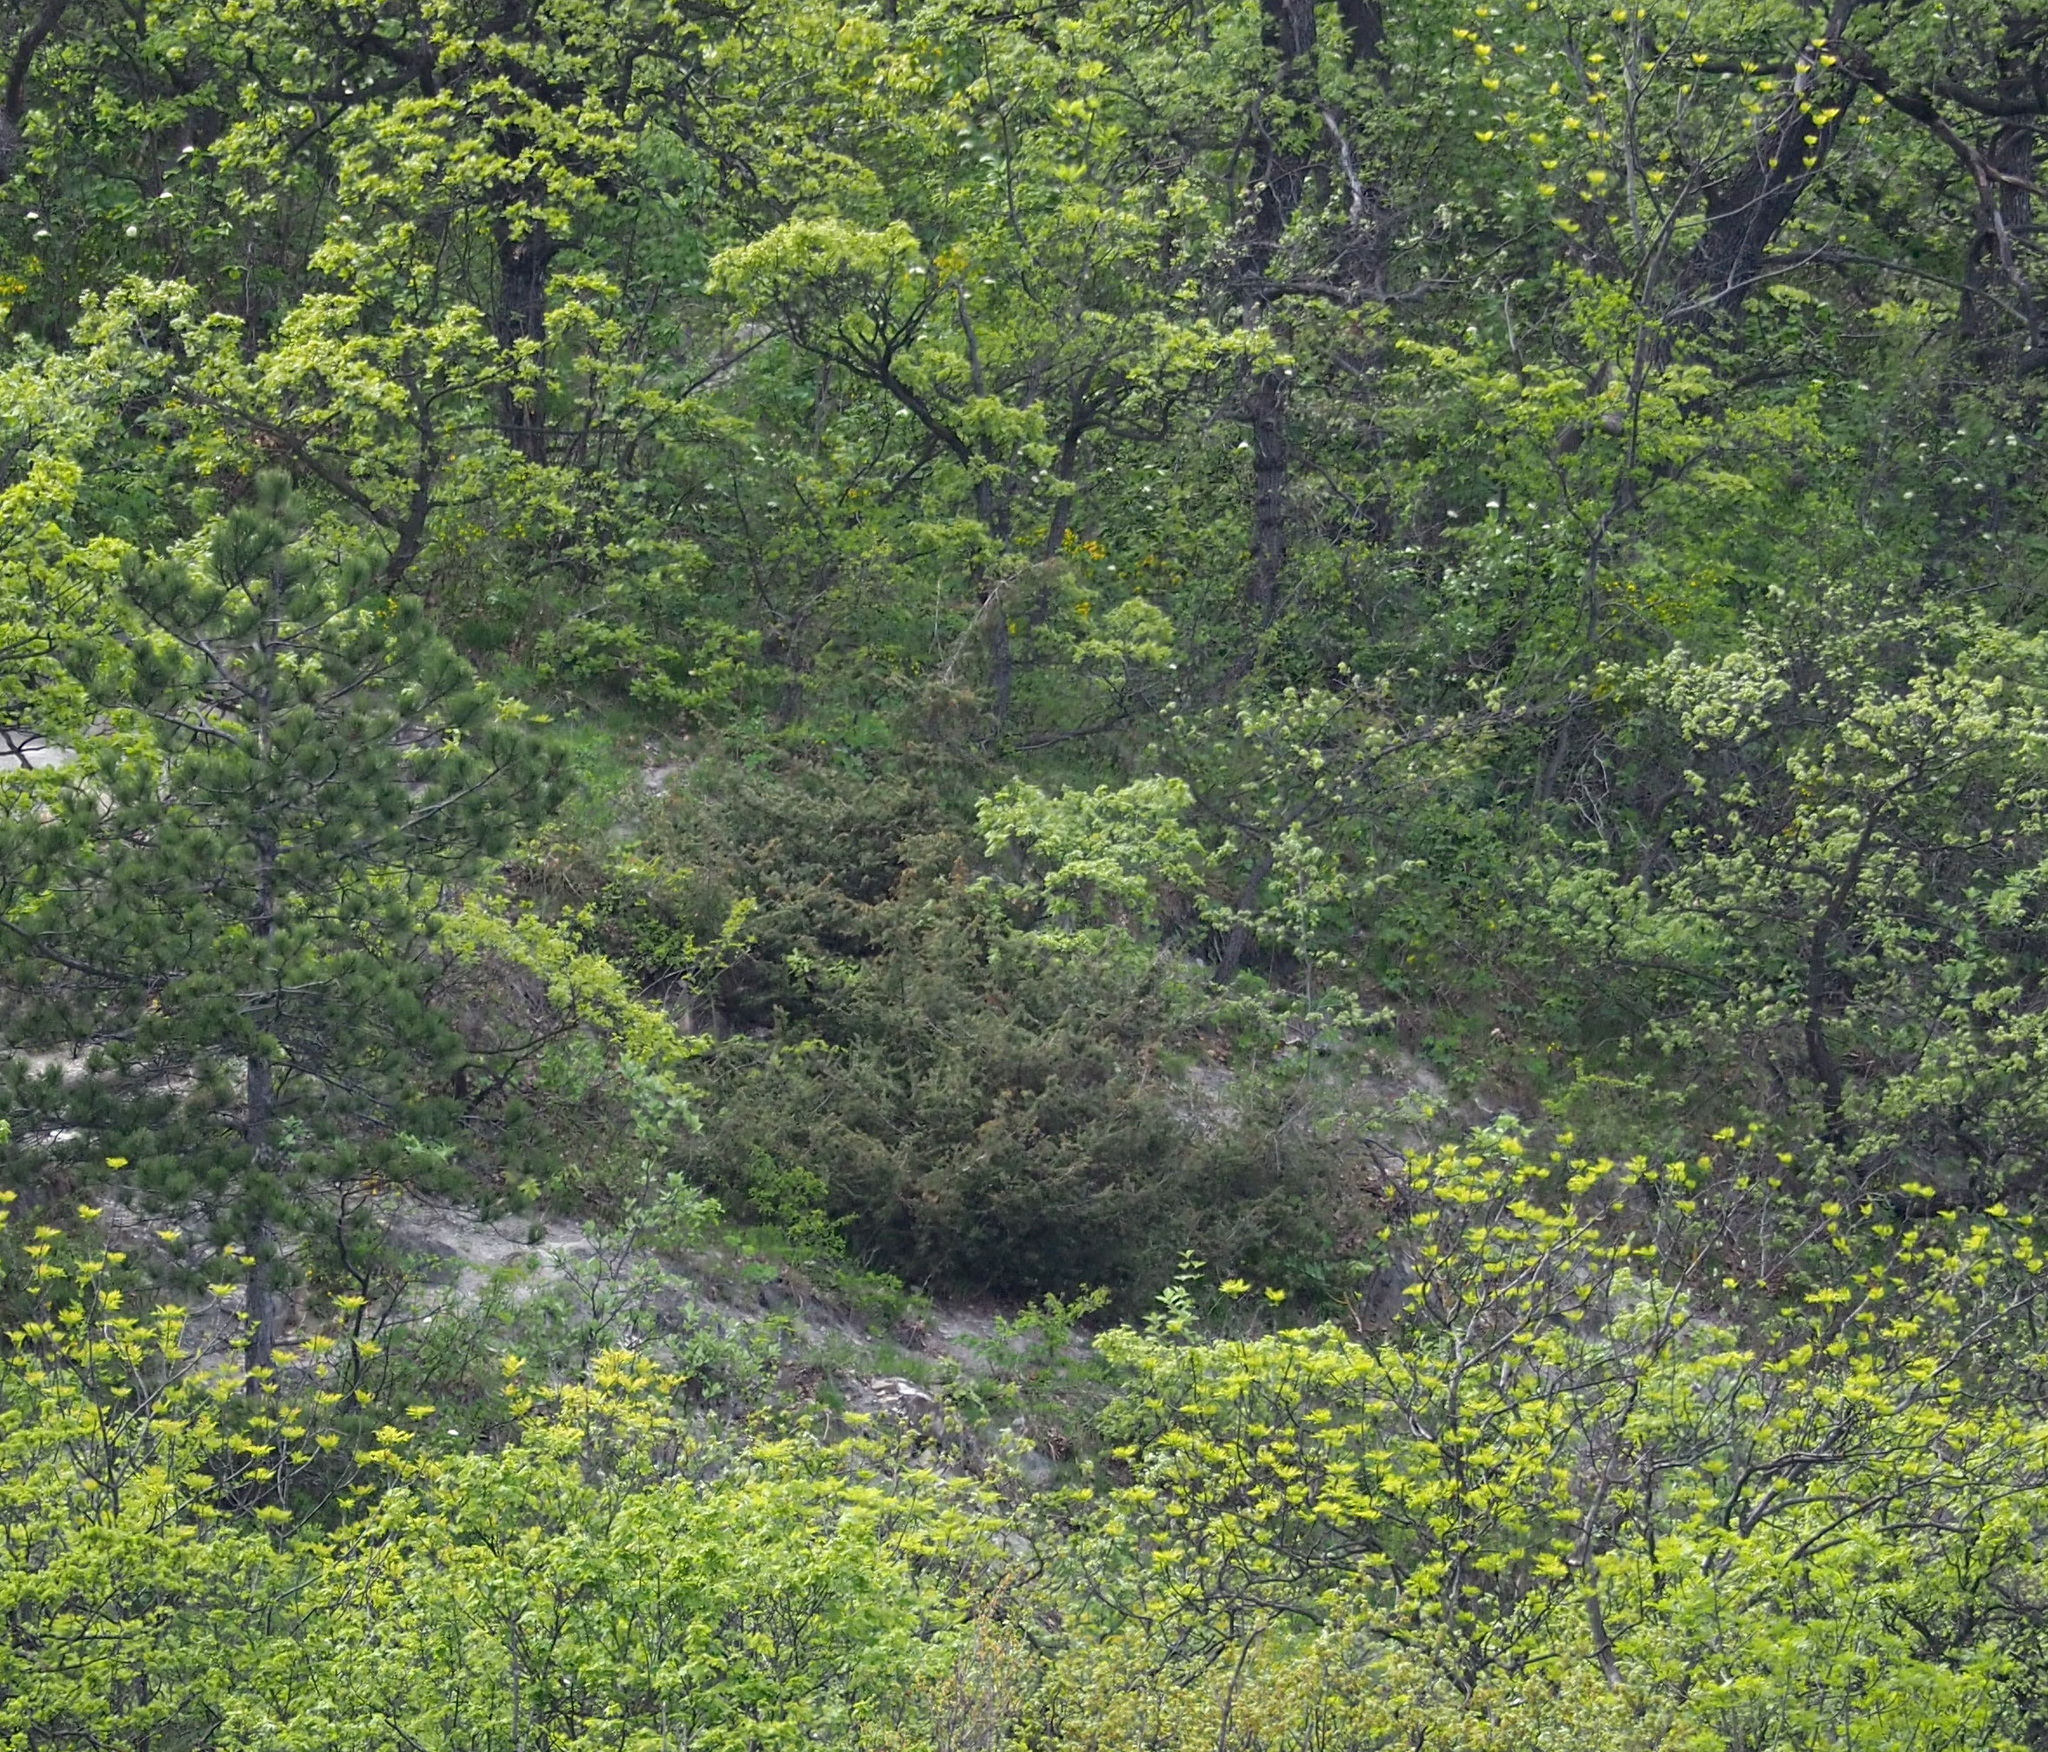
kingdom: Plantae
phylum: Tracheophyta
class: Pinopsida
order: Pinales
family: Cupressaceae
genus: Juniperus
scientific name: Juniperus communis
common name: Common juniper
